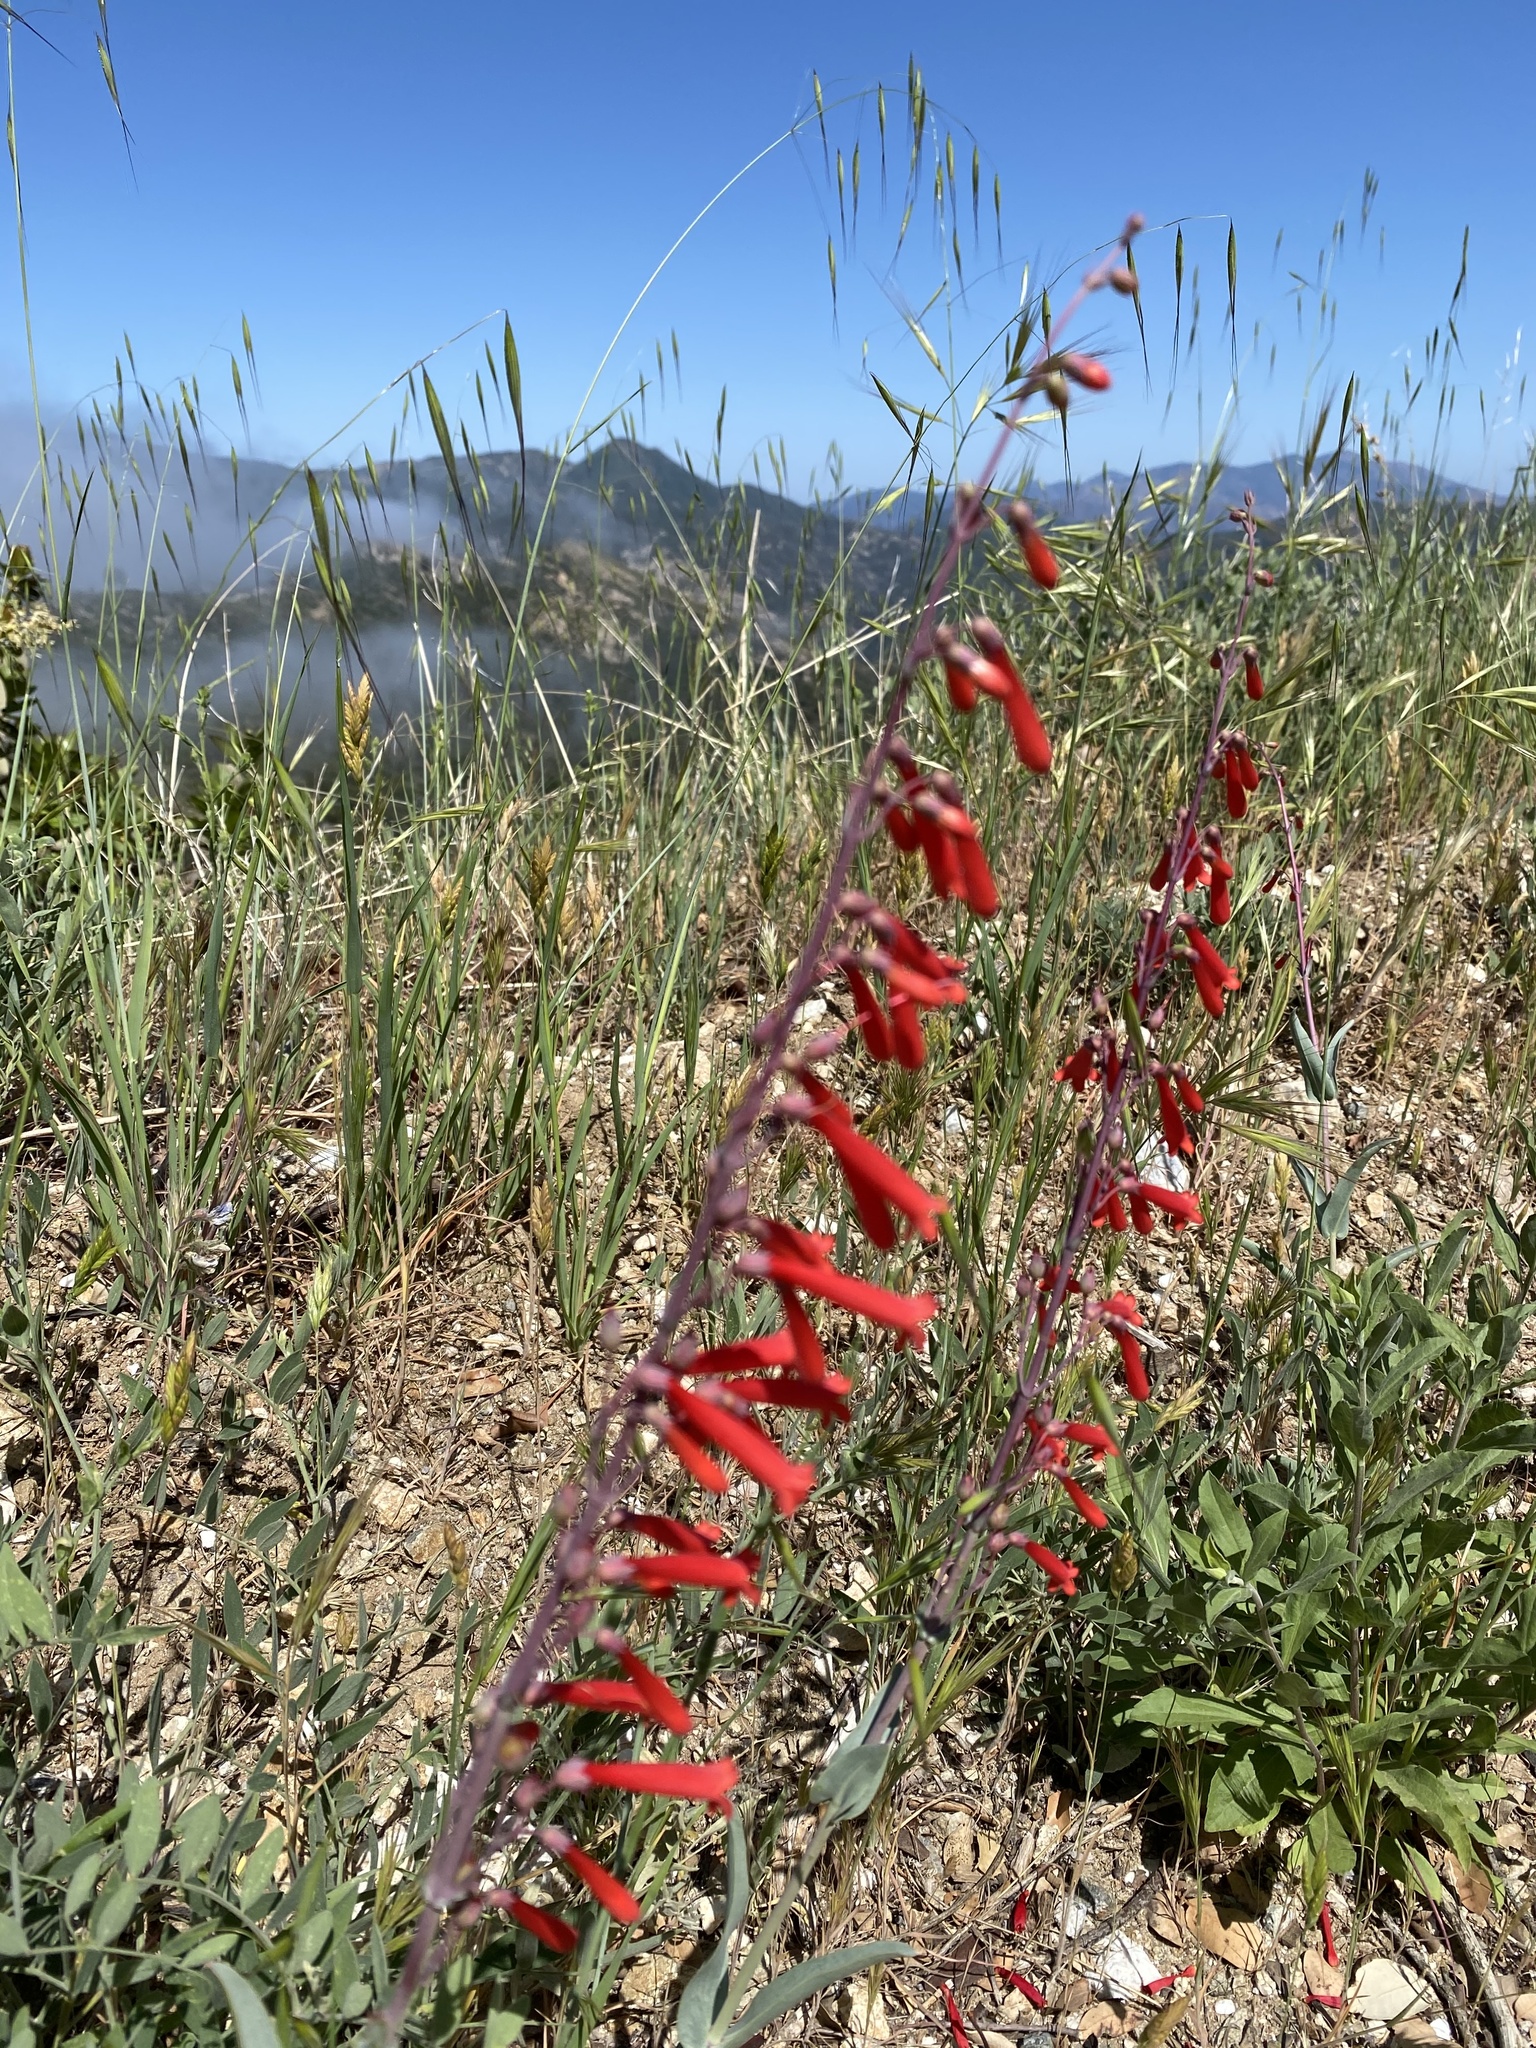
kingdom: Plantae
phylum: Tracheophyta
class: Magnoliopsida
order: Lamiales
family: Plantaginaceae
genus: Penstemon
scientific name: Penstemon centranthifolius
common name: Scarlet bugler
